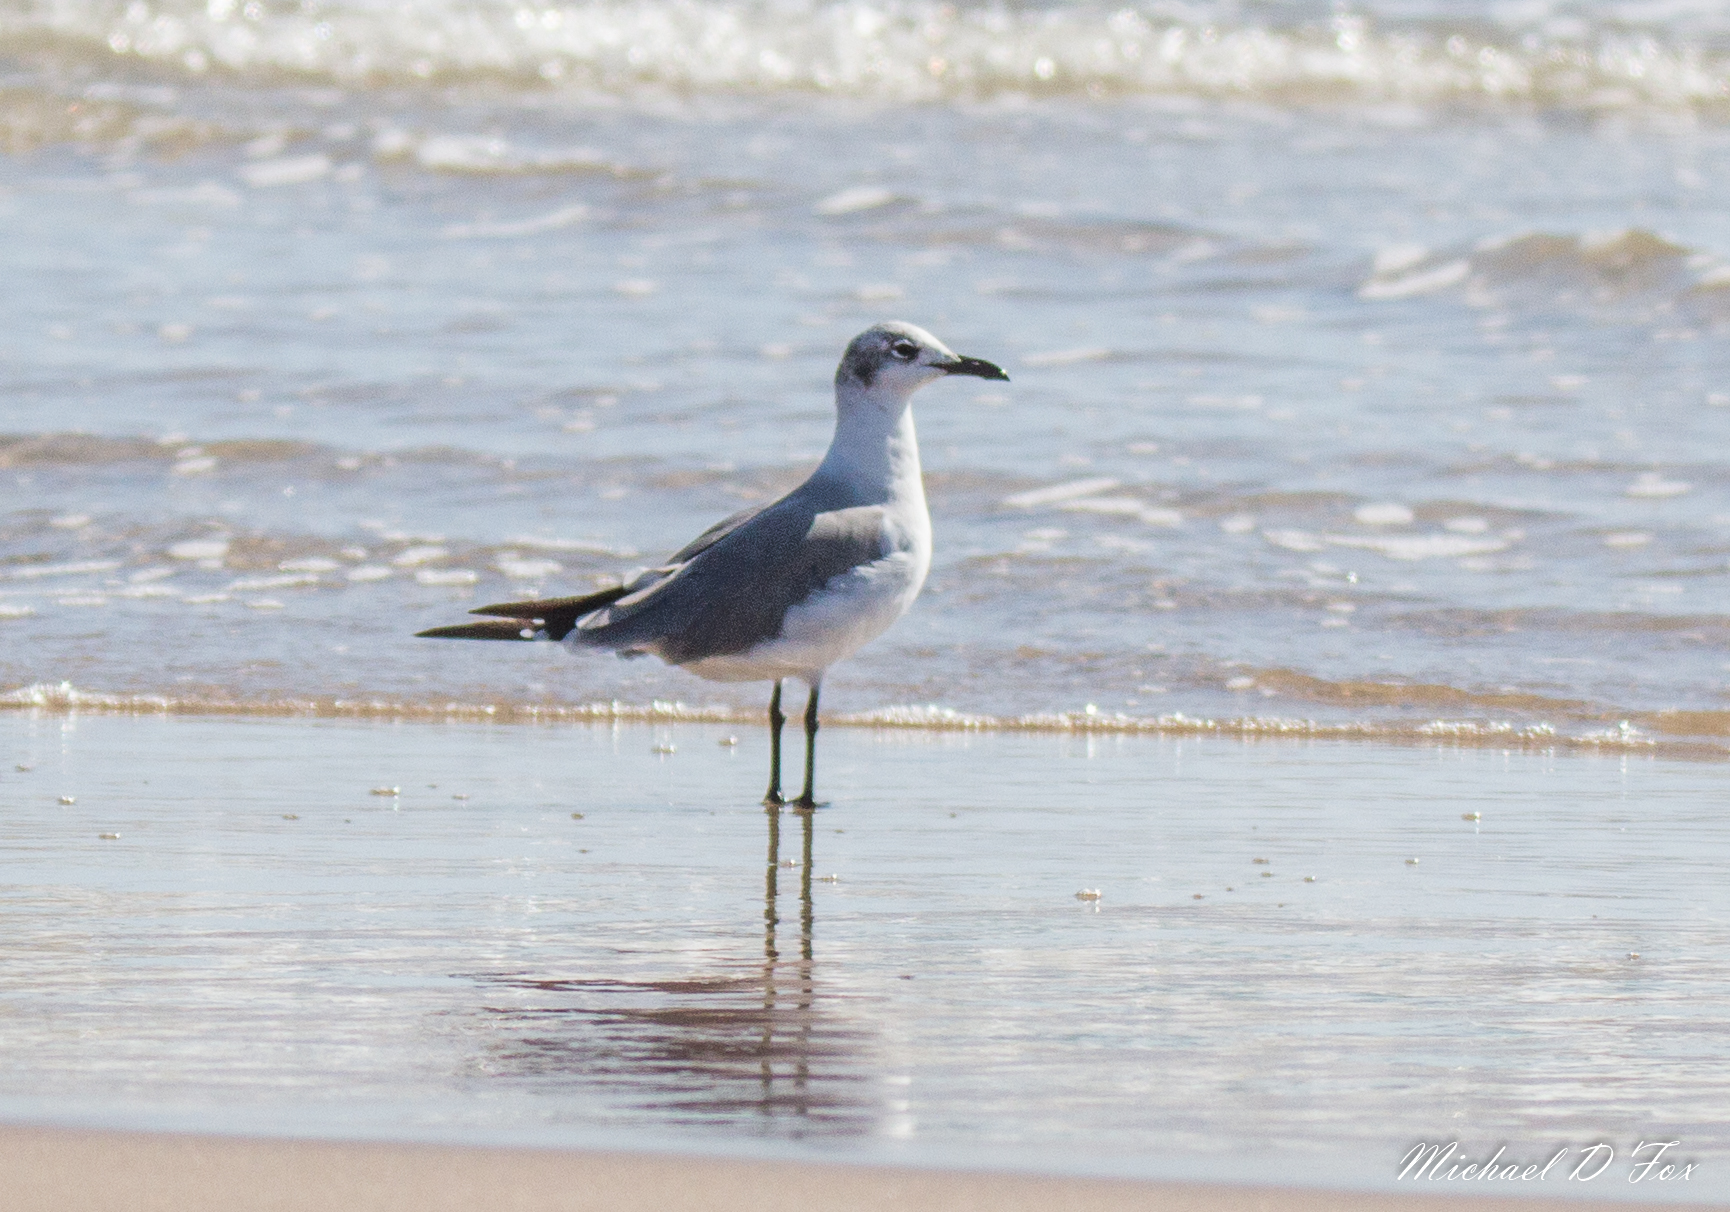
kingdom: Animalia
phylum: Chordata
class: Aves
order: Charadriiformes
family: Laridae
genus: Leucophaeus
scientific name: Leucophaeus atricilla
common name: Laughing gull
